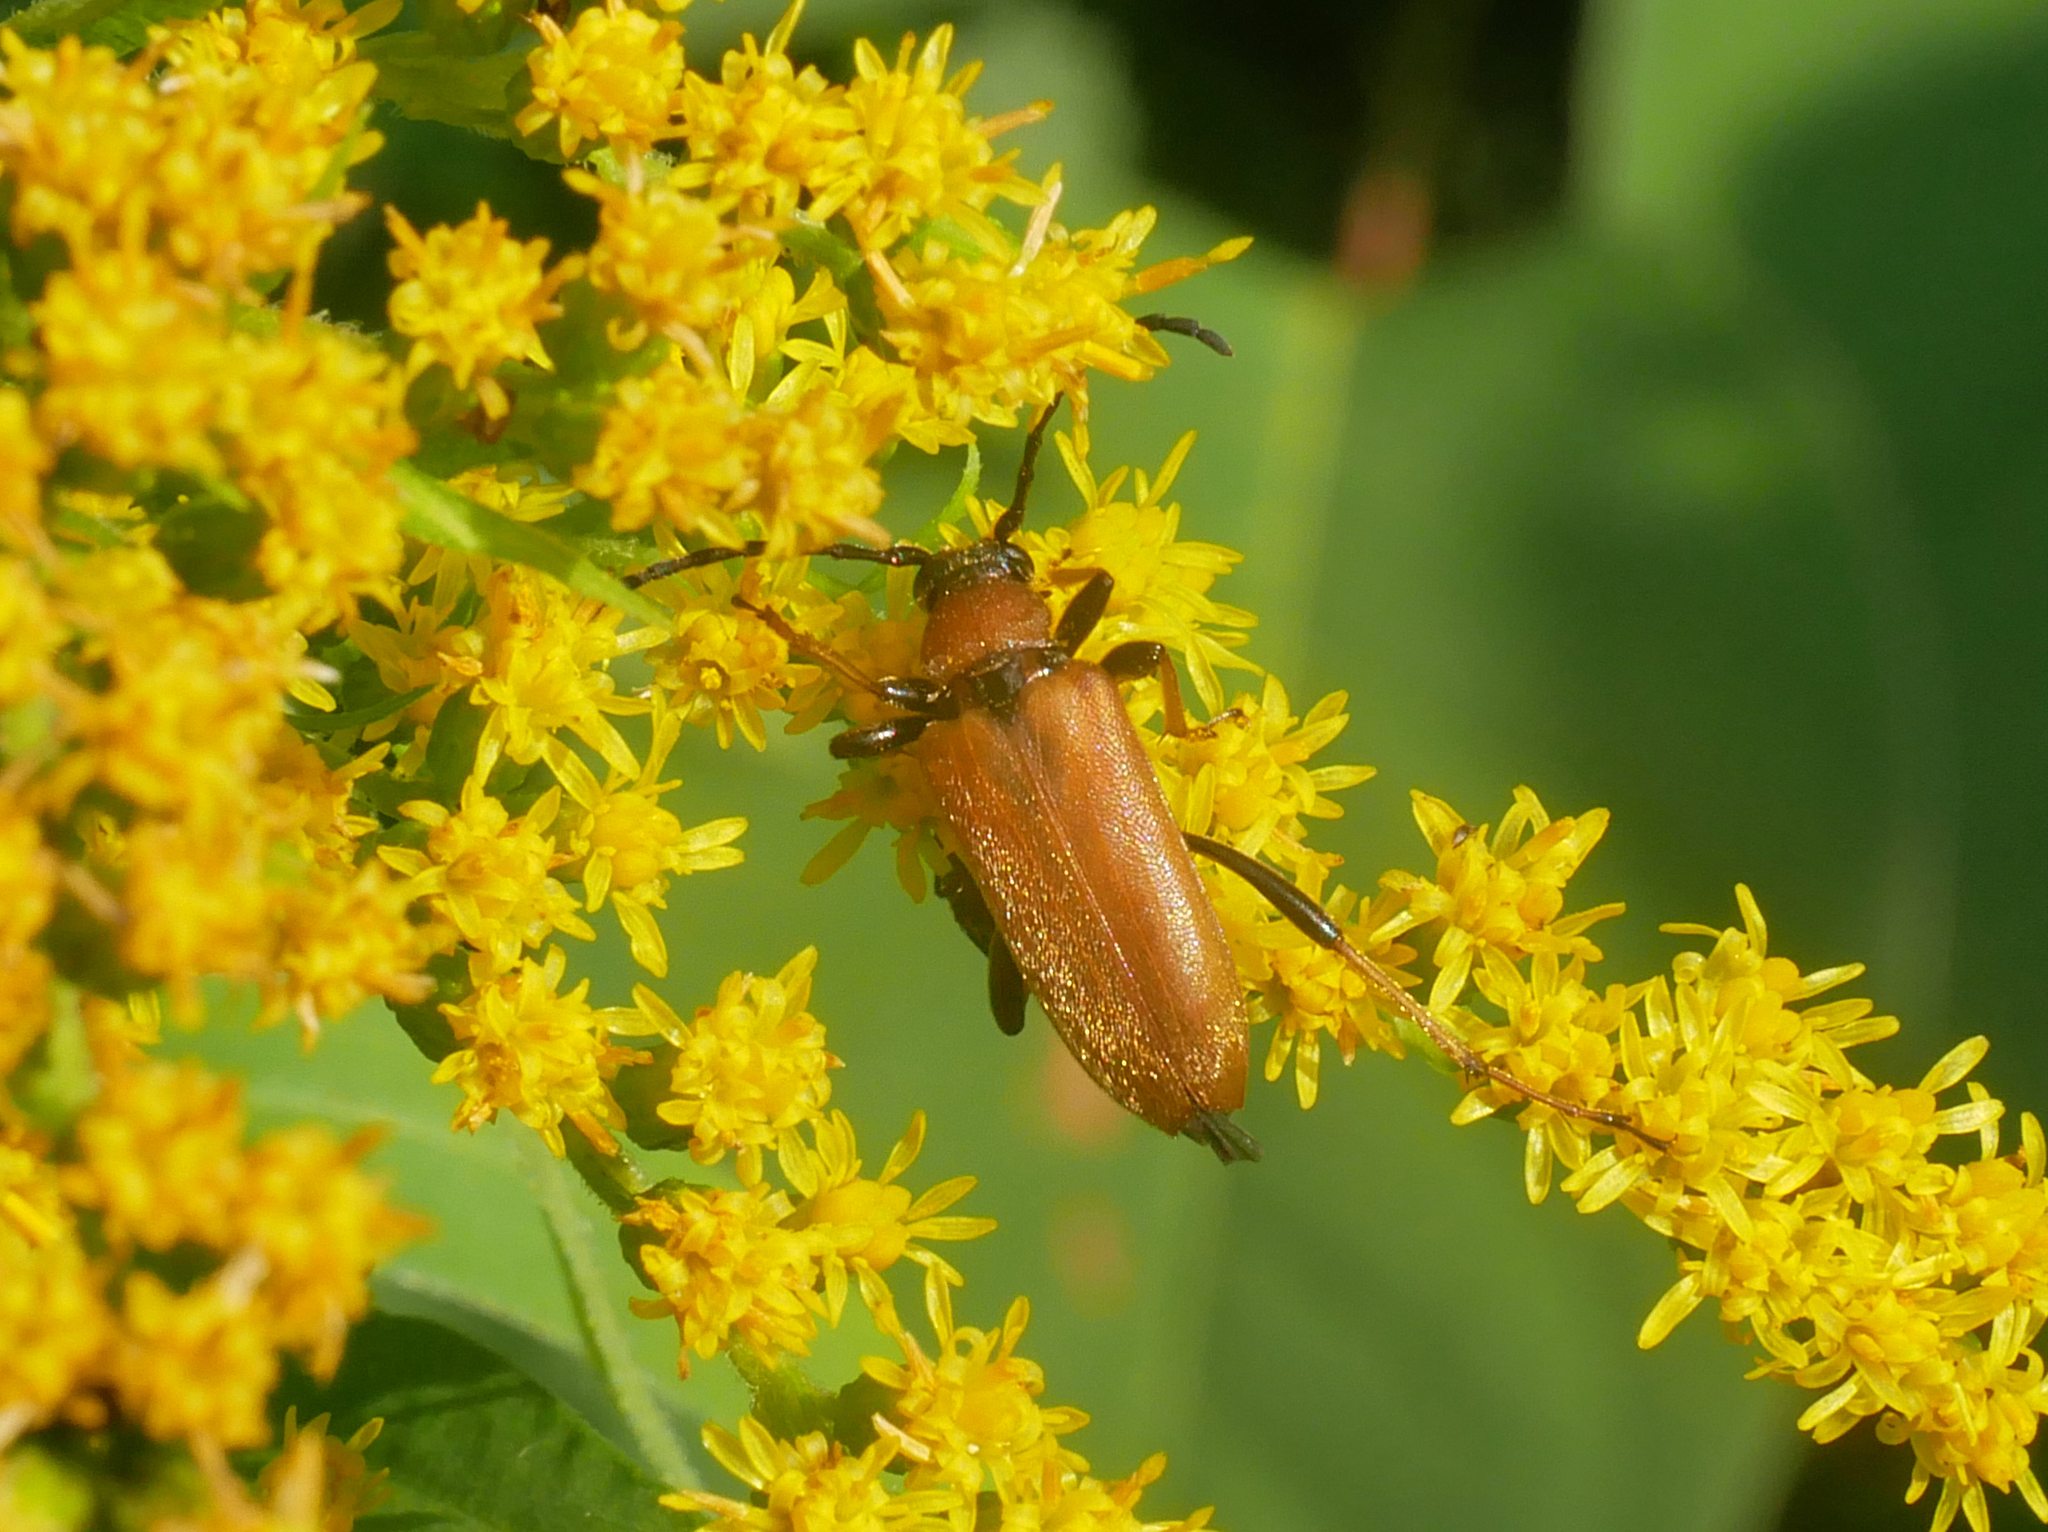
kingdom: Animalia
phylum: Arthropoda
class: Insecta
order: Coleoptera
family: Cerambycidae
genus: Stictoleptura
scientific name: Stictoleptura rubra
